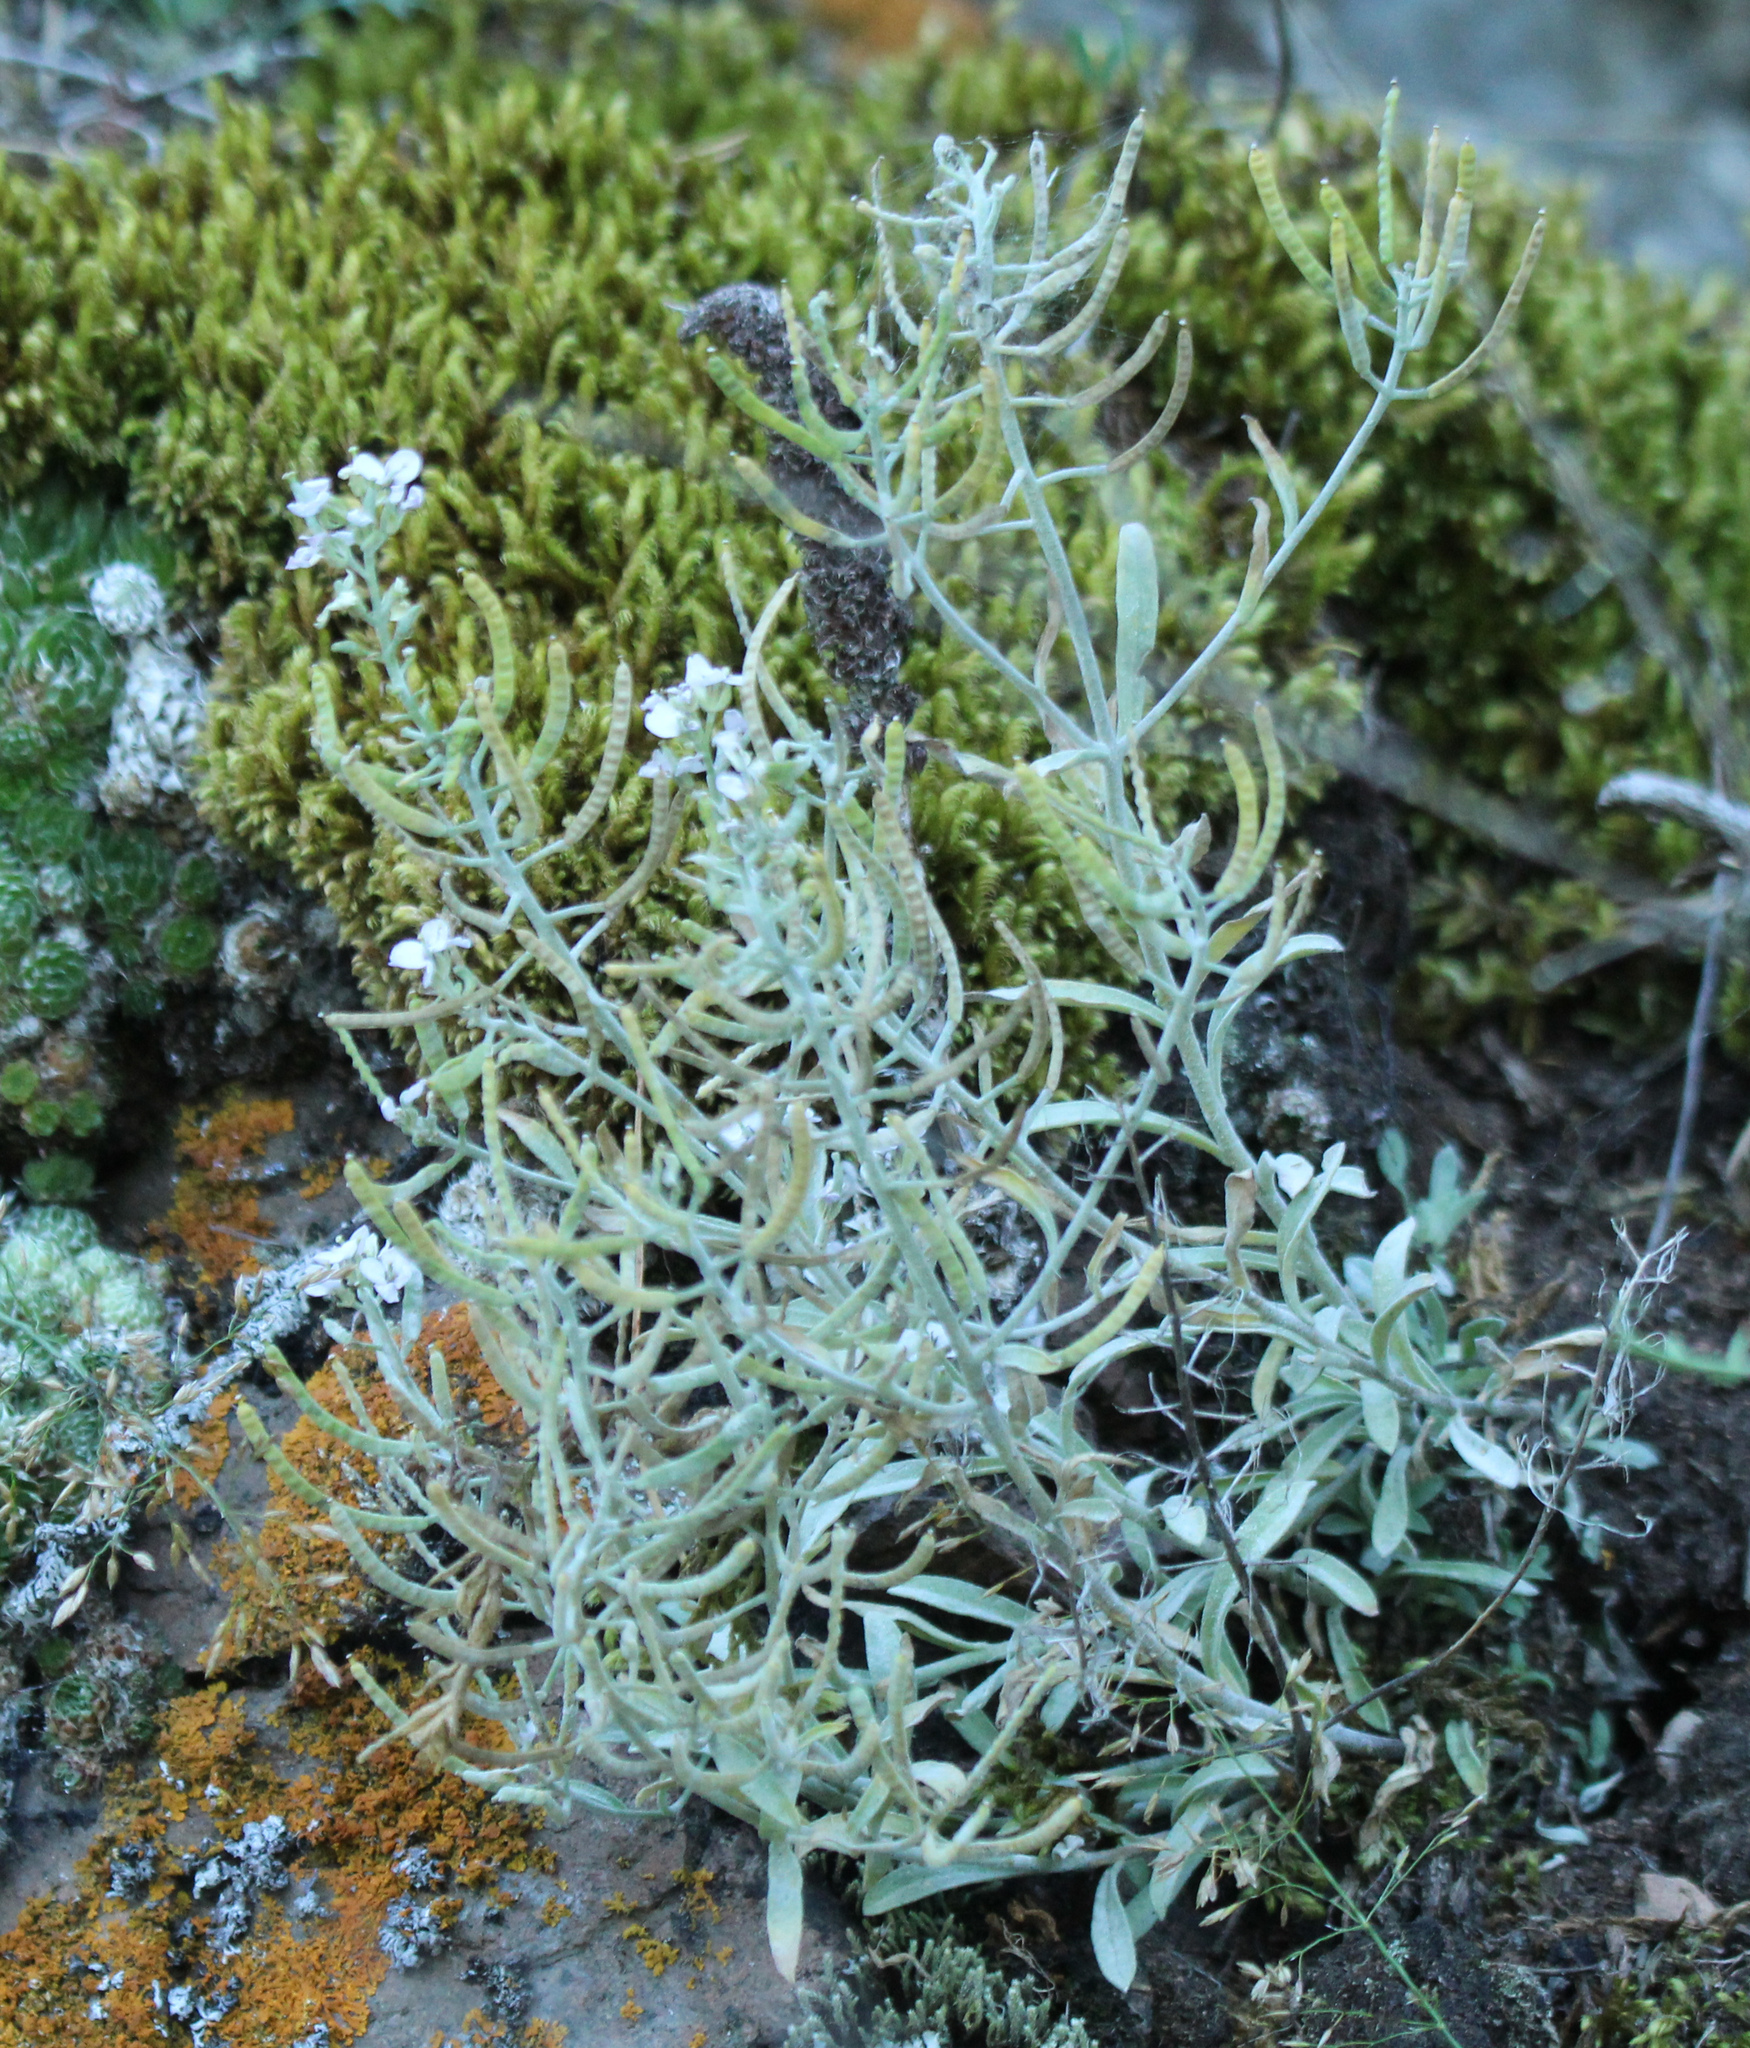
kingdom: Plantae
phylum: Tracheophyta
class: Magnoliopsida
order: Brassicales
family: Brassicaceae
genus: Stevenia
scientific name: Stevenia incarnata
